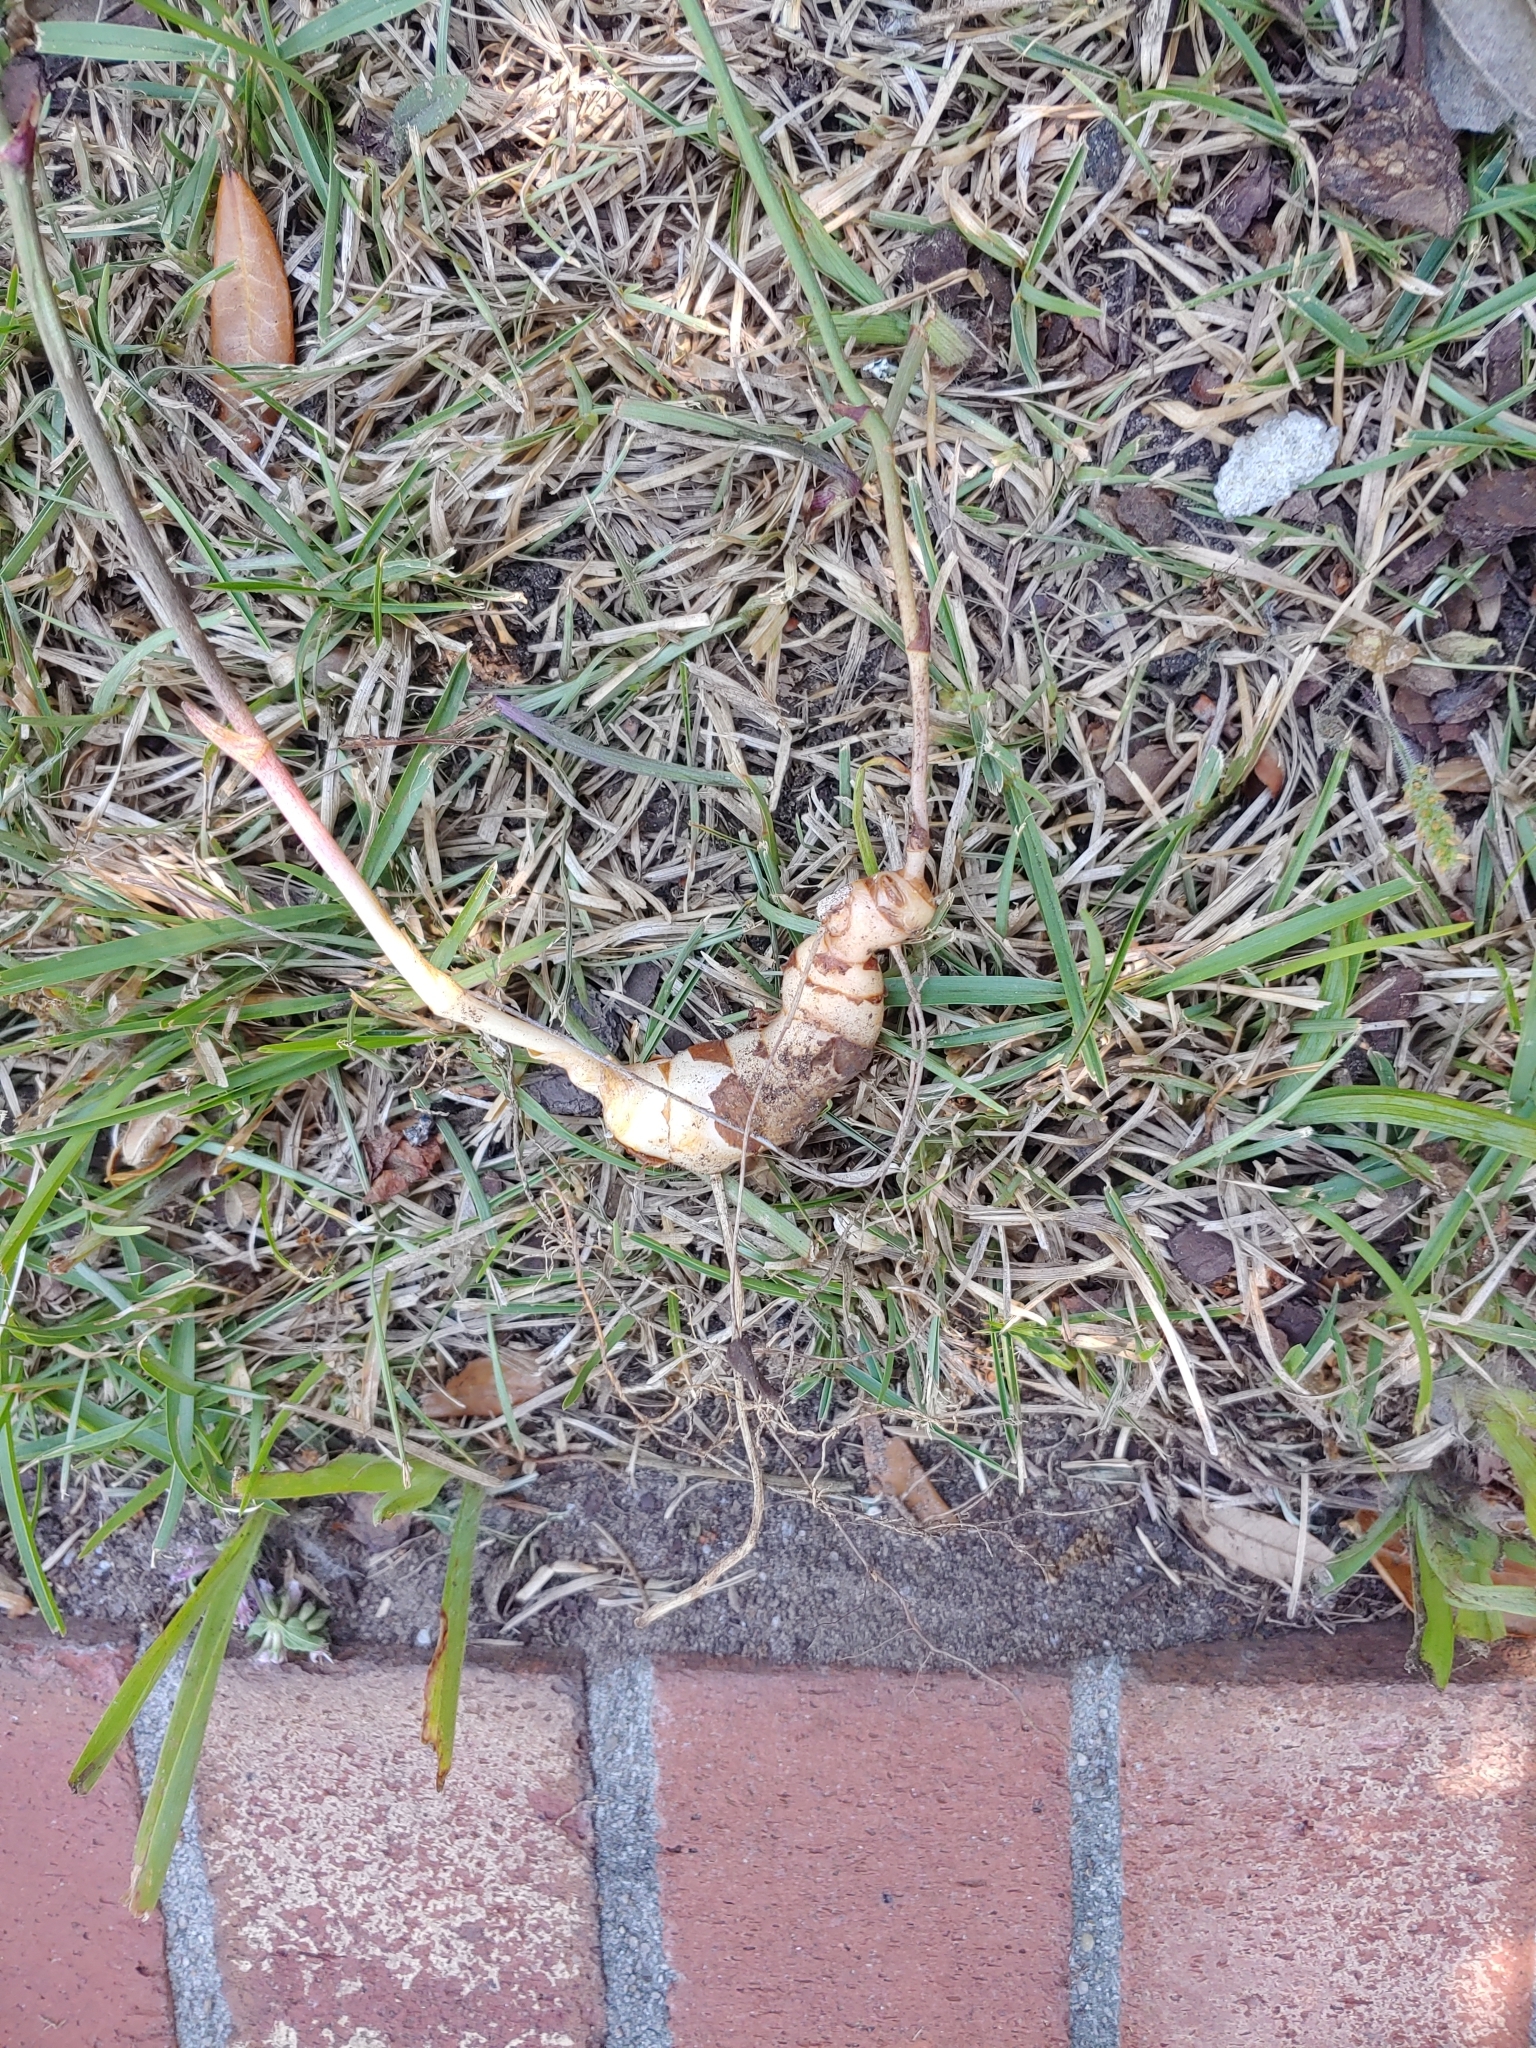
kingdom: Plantae
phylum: Tracheophyta
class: Liliopsida
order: Liliales
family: Smilacaceae
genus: Smilax
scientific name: Smilax maritima
